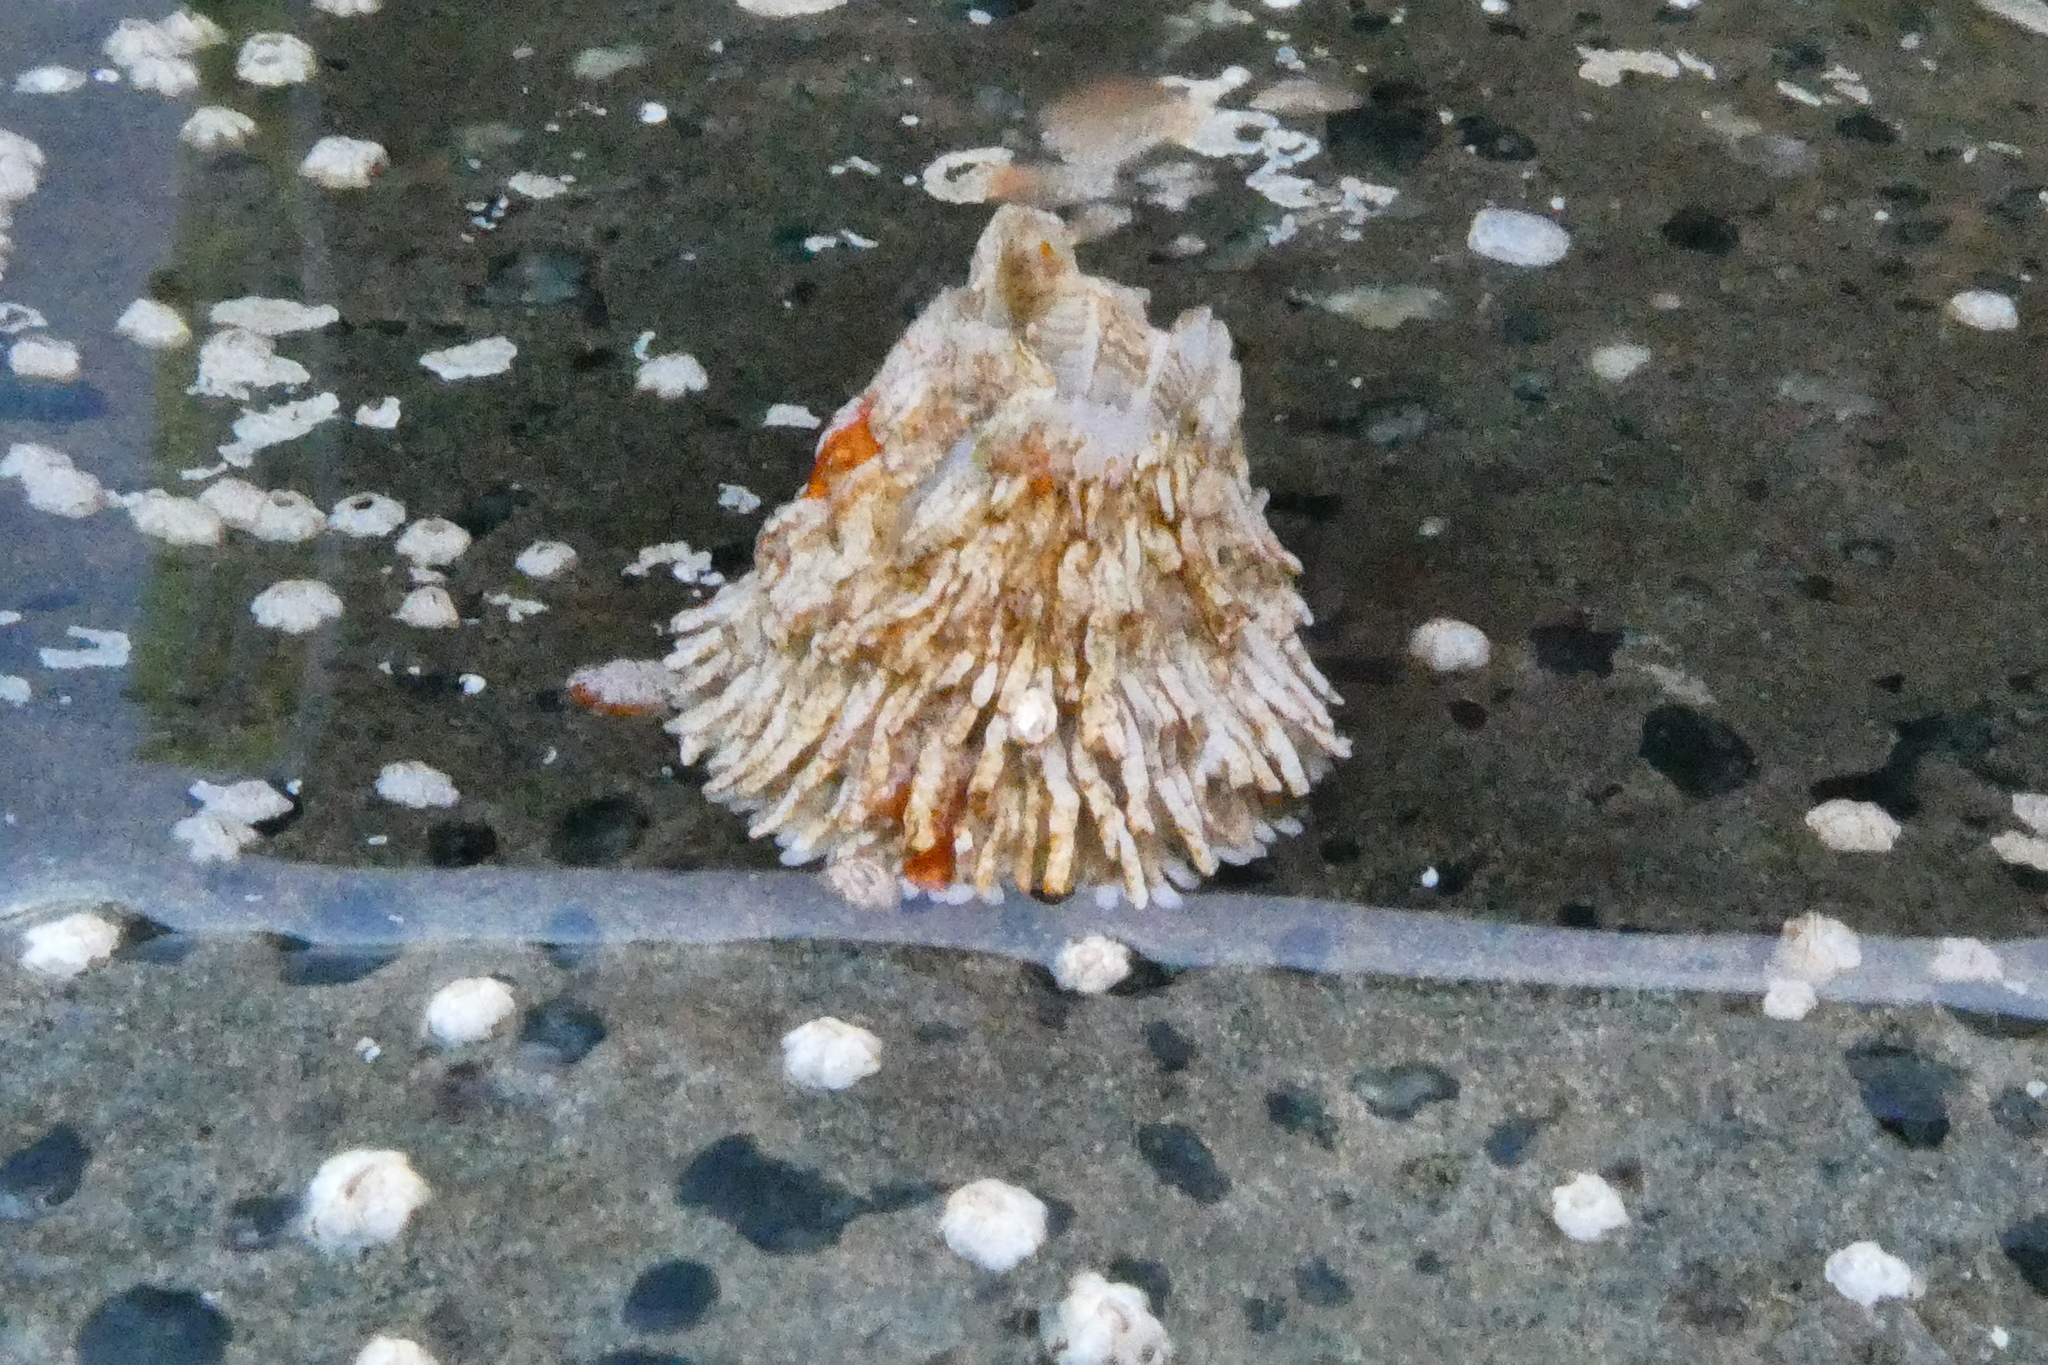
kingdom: Animalia
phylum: Arthropoda
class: Maxillopoda
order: Sessilia
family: Archaeobalanidae
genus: Semibalanus
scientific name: Semibalanus cariosus
